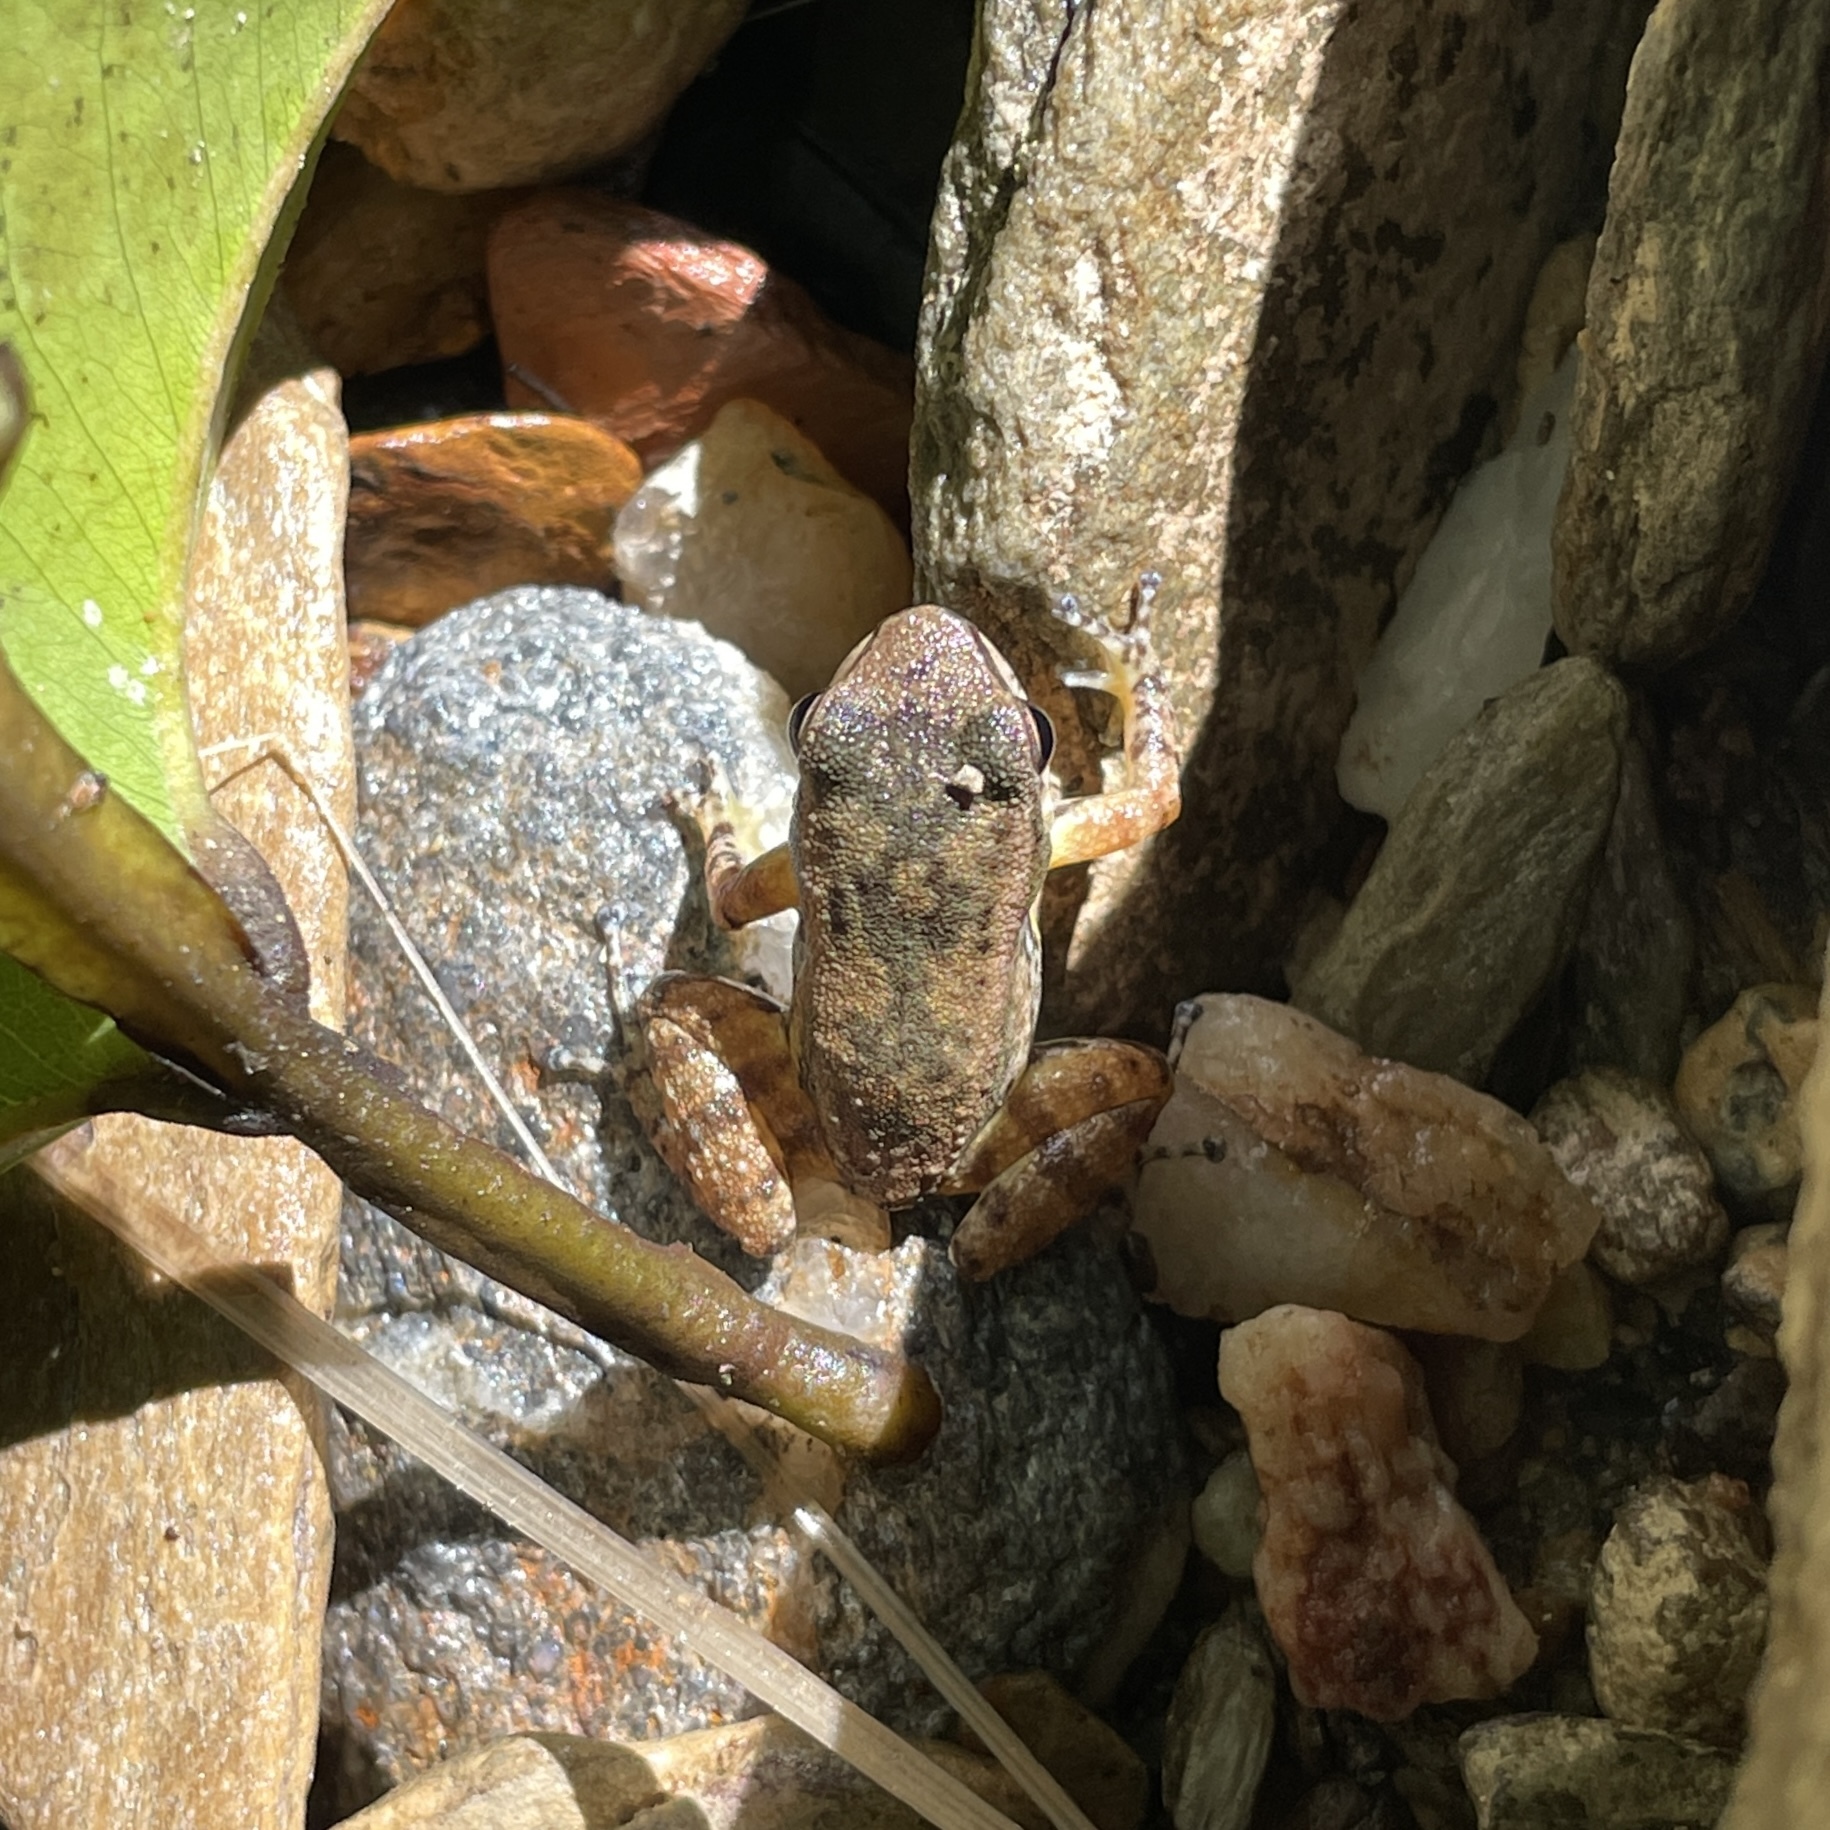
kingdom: Animalia
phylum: Chordata
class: Amphibia
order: Anura
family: Aromobatidae
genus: Mannophryne
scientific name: Mannophryne trinitatis
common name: Trinidad poison frog
